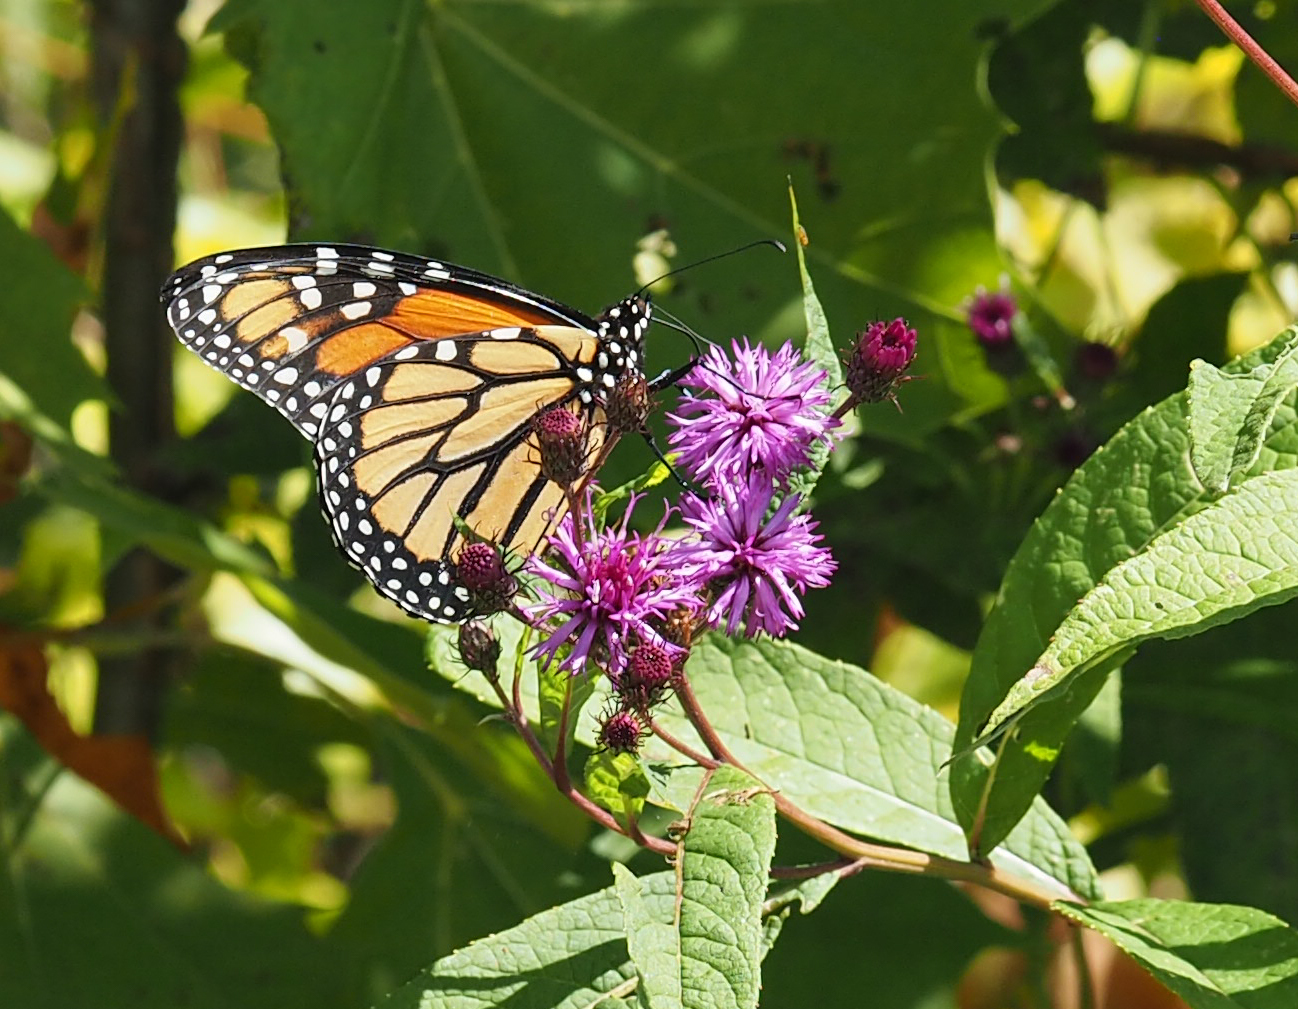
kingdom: Animalia
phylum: Arthropoda
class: Insecta
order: Lepidoptera
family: Nymphalidae
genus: Danaus
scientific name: Danaus plexippus
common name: Monarch
